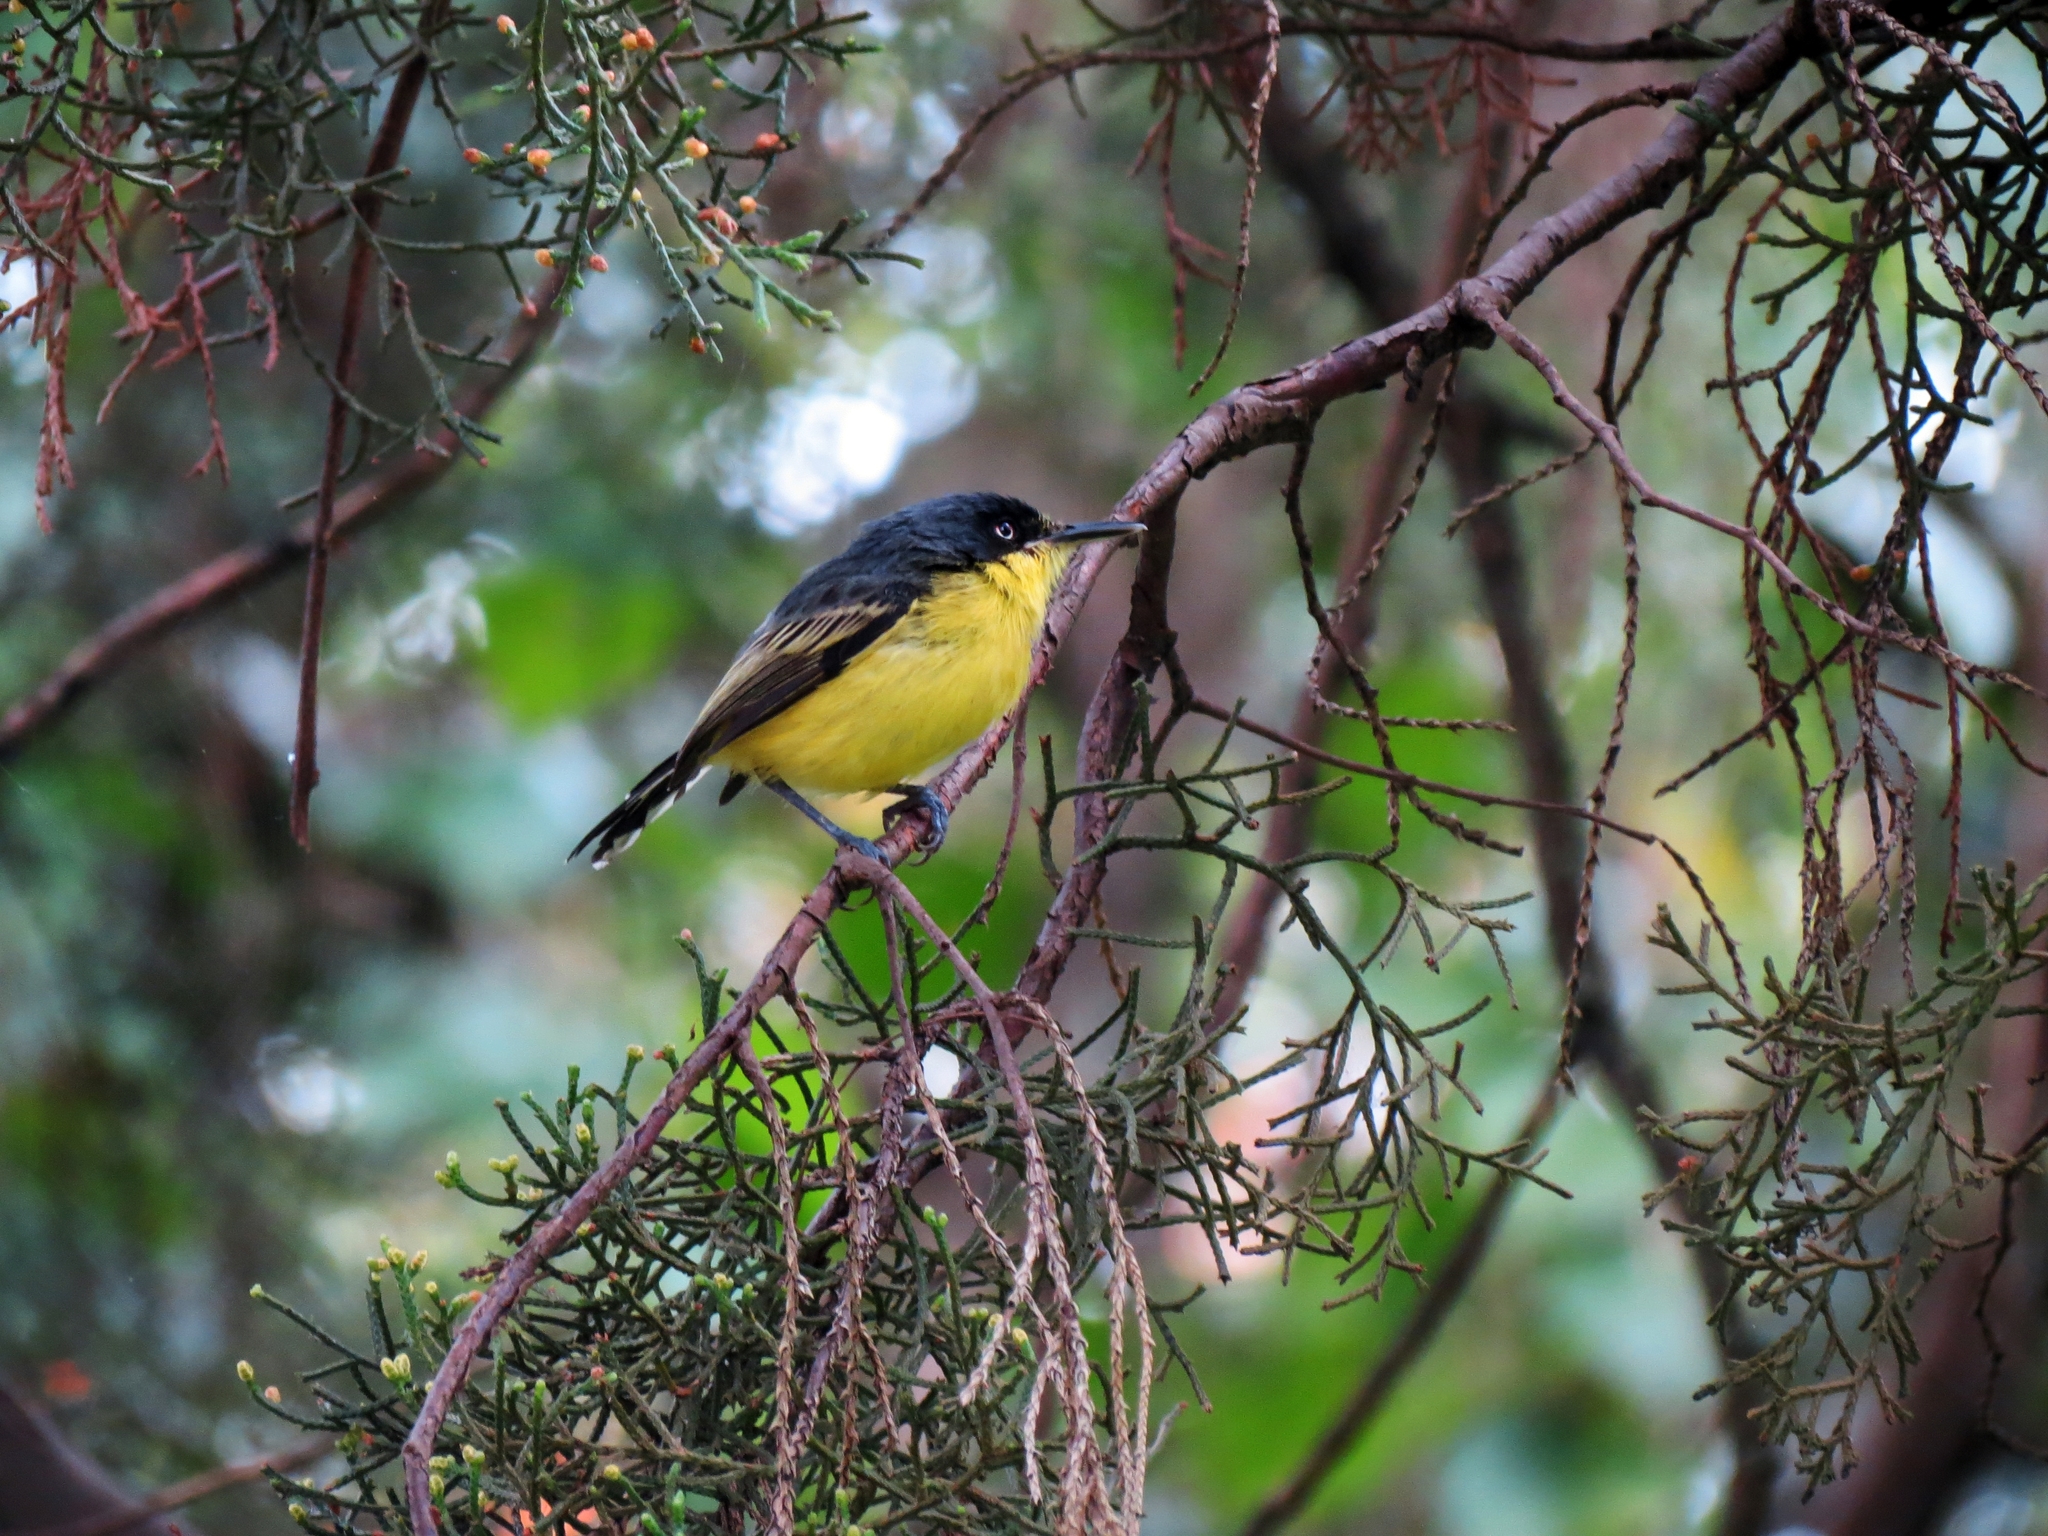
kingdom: Animalia
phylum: Chordata
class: Aves
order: Passeriformes
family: Tyrannidae
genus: Todirostrum
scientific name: Todirostrum cinereum
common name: Common tody-flycatcher
